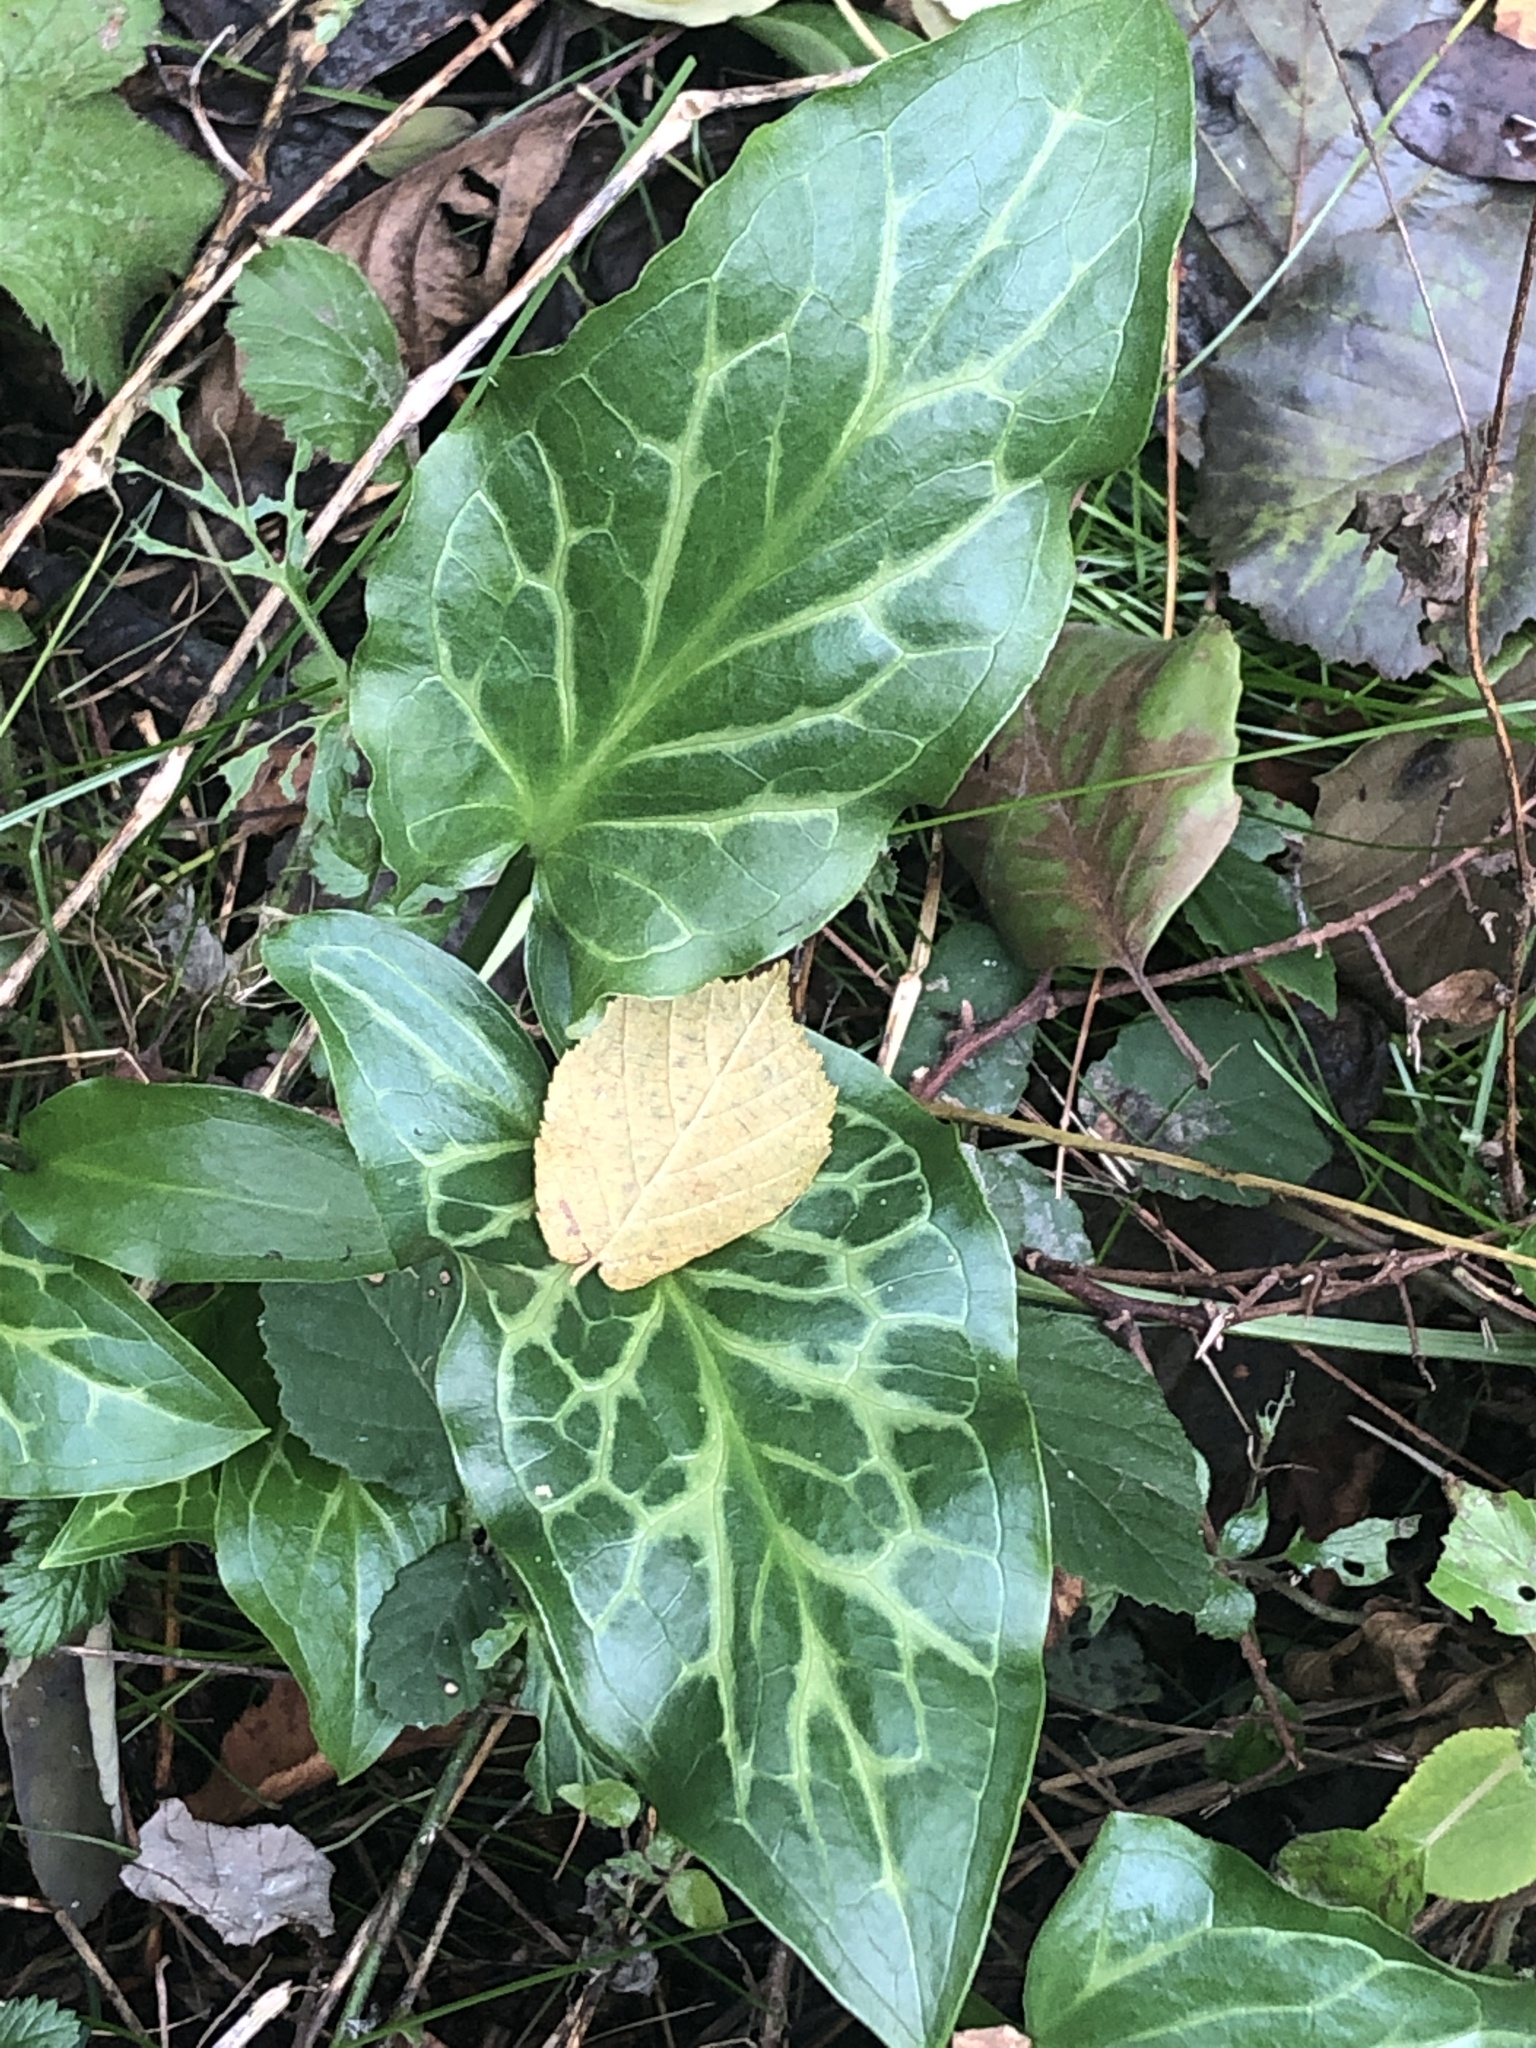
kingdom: Plantae
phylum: Tracheophyta
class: Liliopsida
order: Alismatales
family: Araceae
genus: Arum
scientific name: Arum italicum
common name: Italian lords-and-ladies
